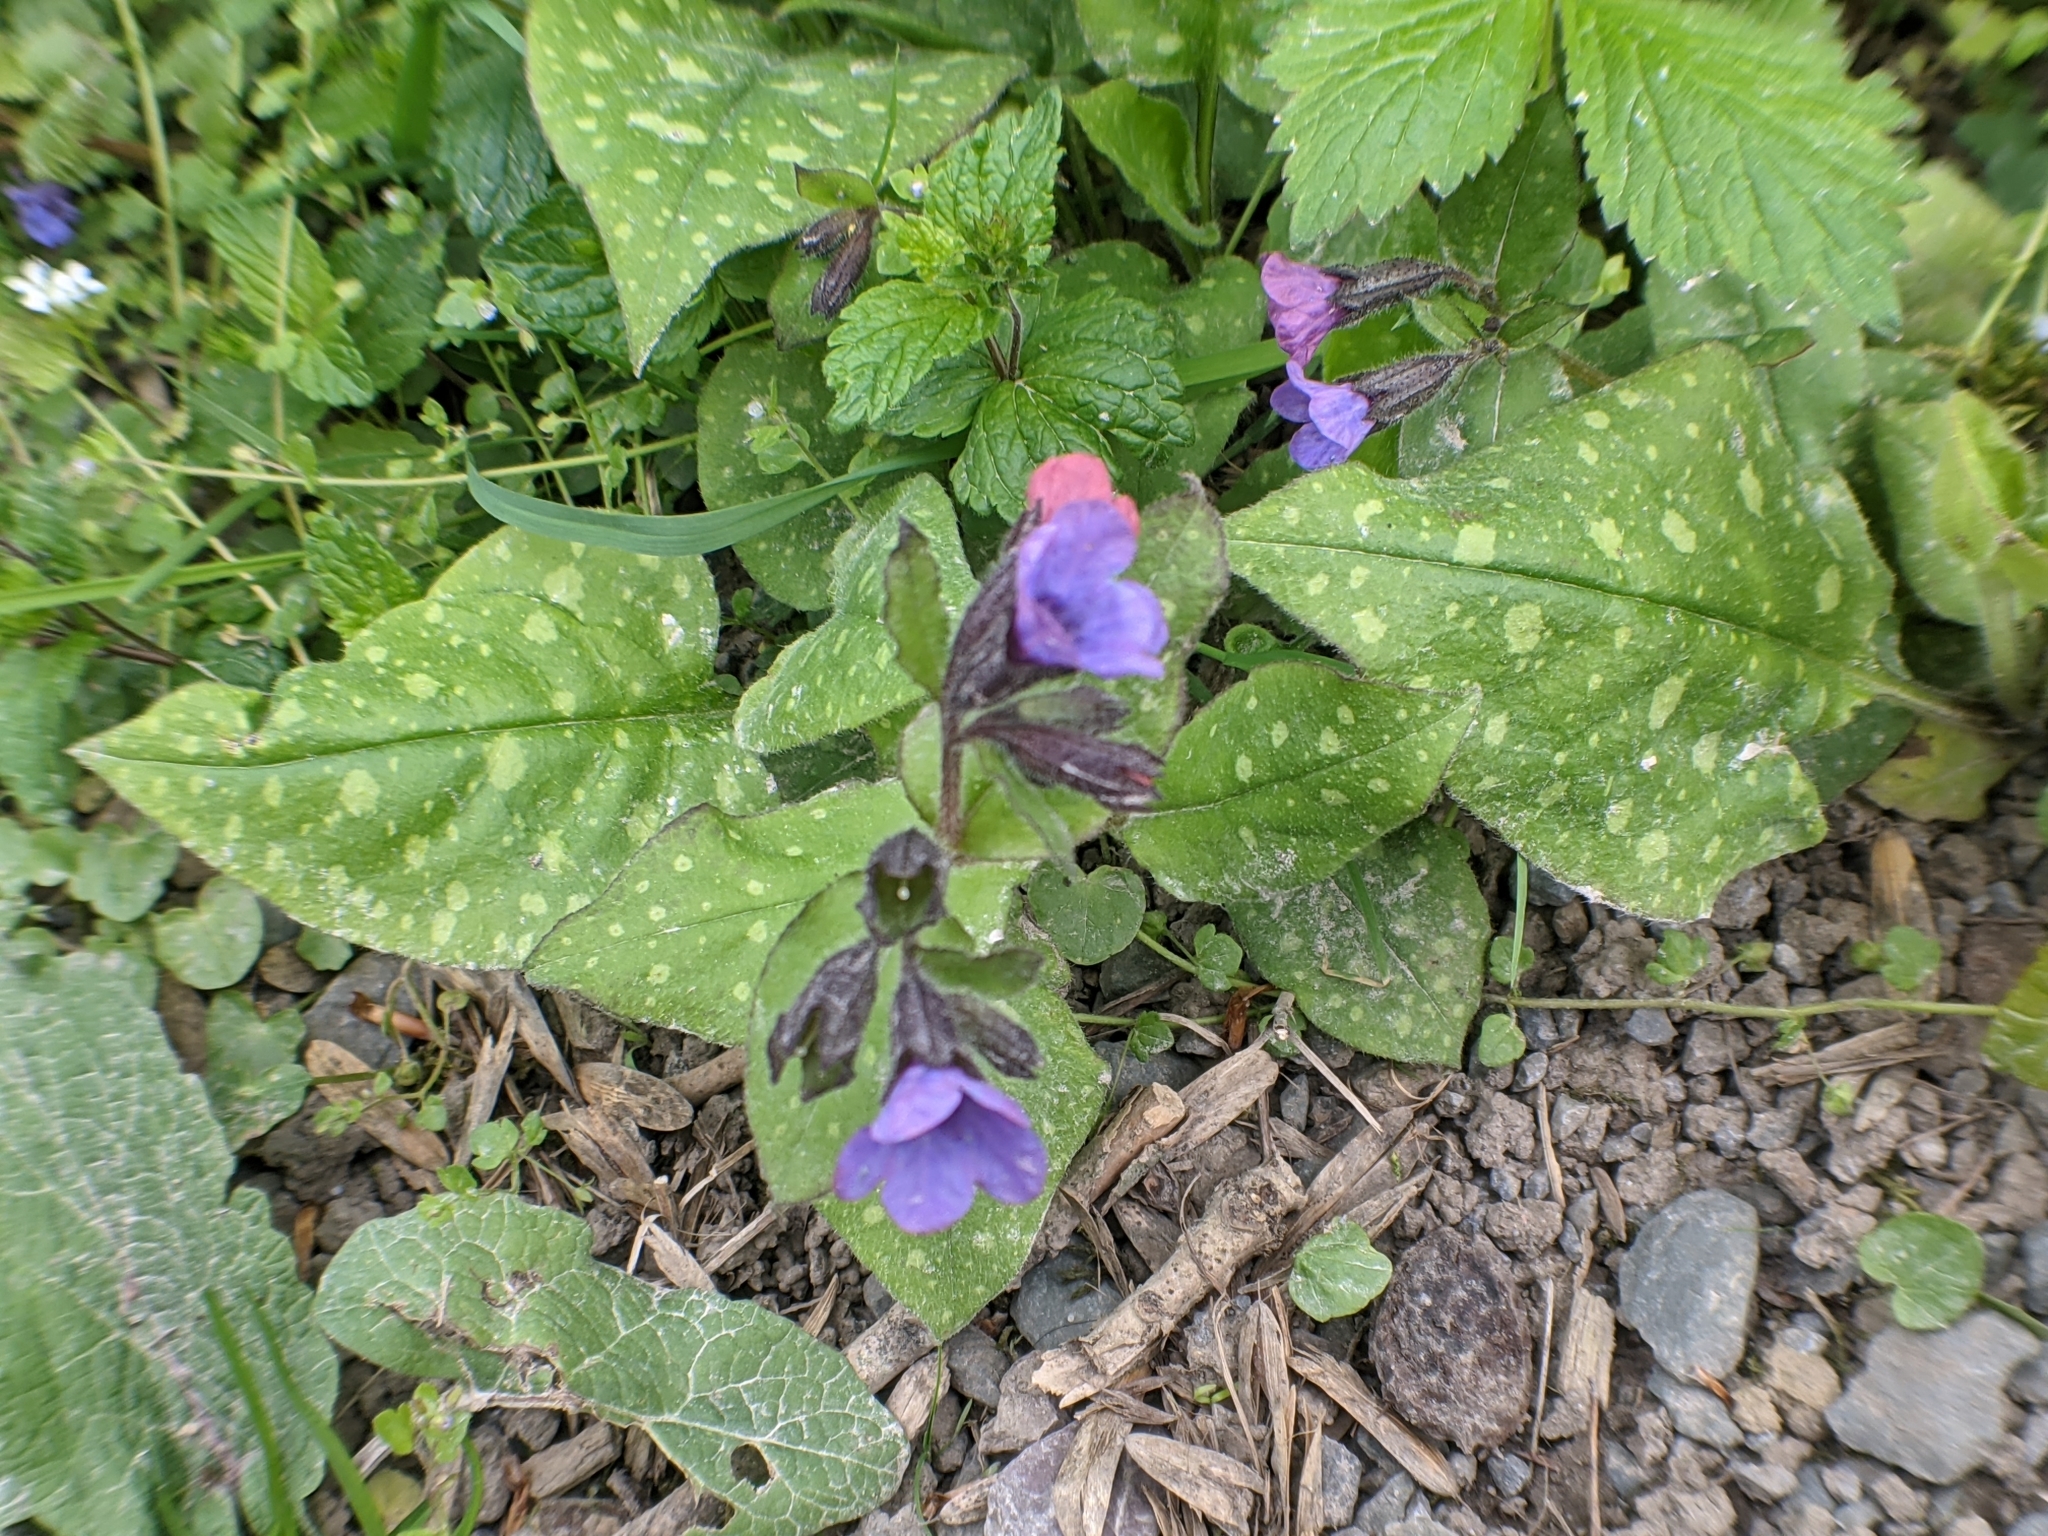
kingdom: Plantae
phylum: Tracheophyta
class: Magnoliopsida
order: Boraginales
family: Boraginaceae
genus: Pulmonaria
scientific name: Pulmonaria officinalis
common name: Lungwort
